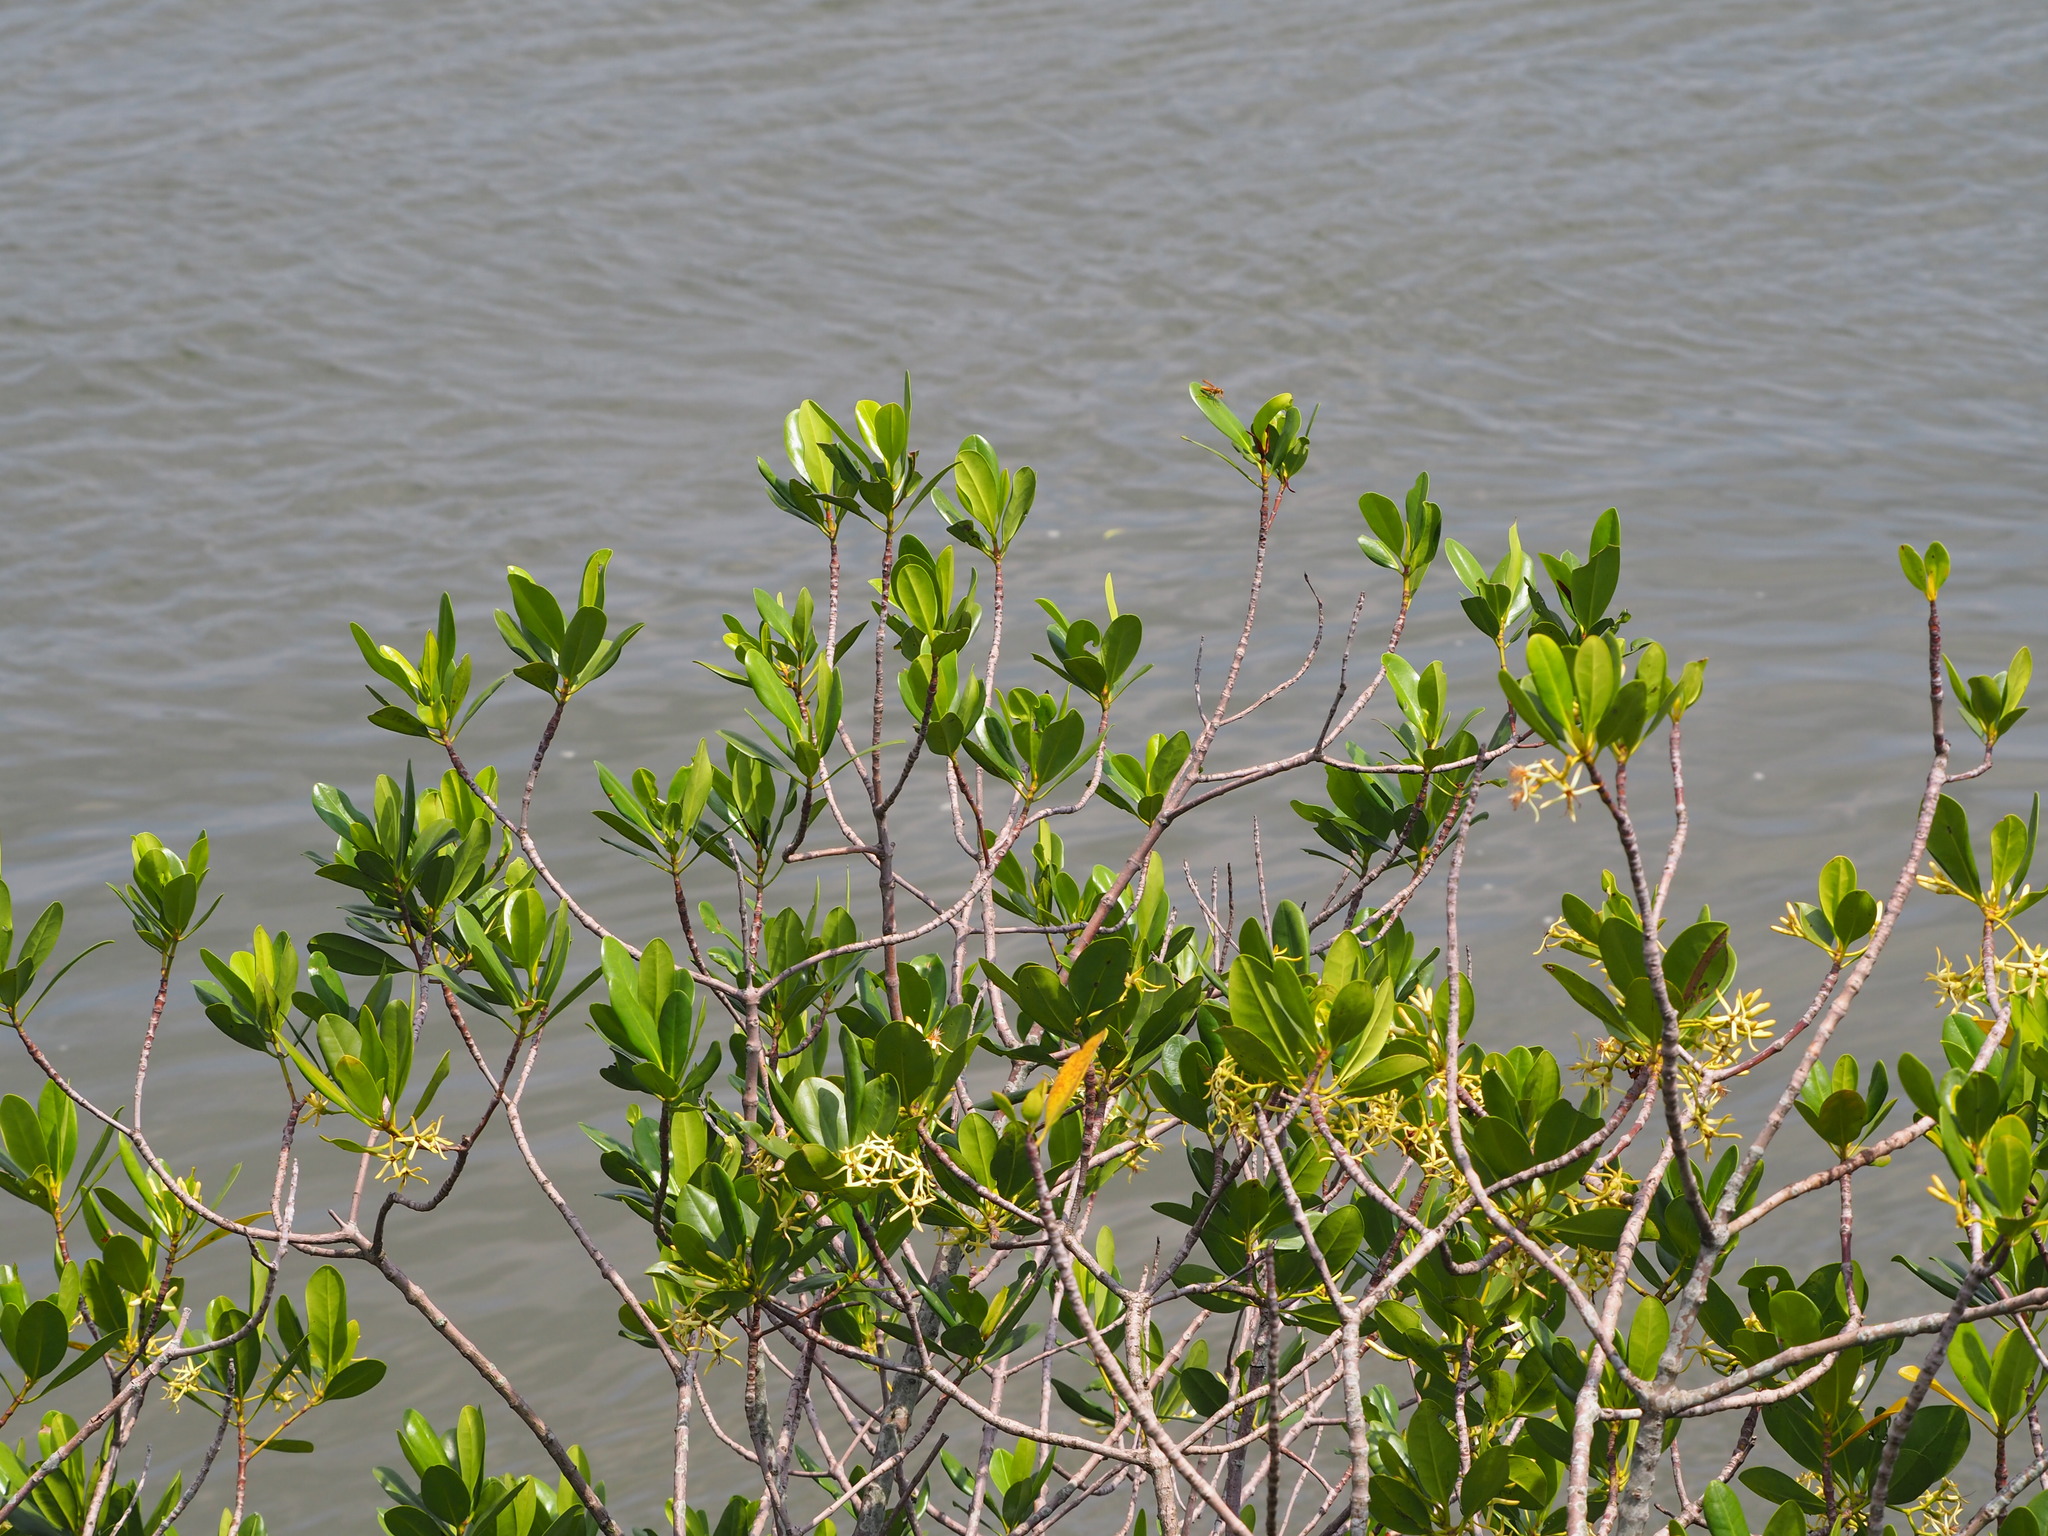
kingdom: Plantae
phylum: Tracheophyta
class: Magnoliopsida
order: Malpighiales
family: Rhizophoraceae
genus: Kandelia
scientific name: Kandelia obovata
